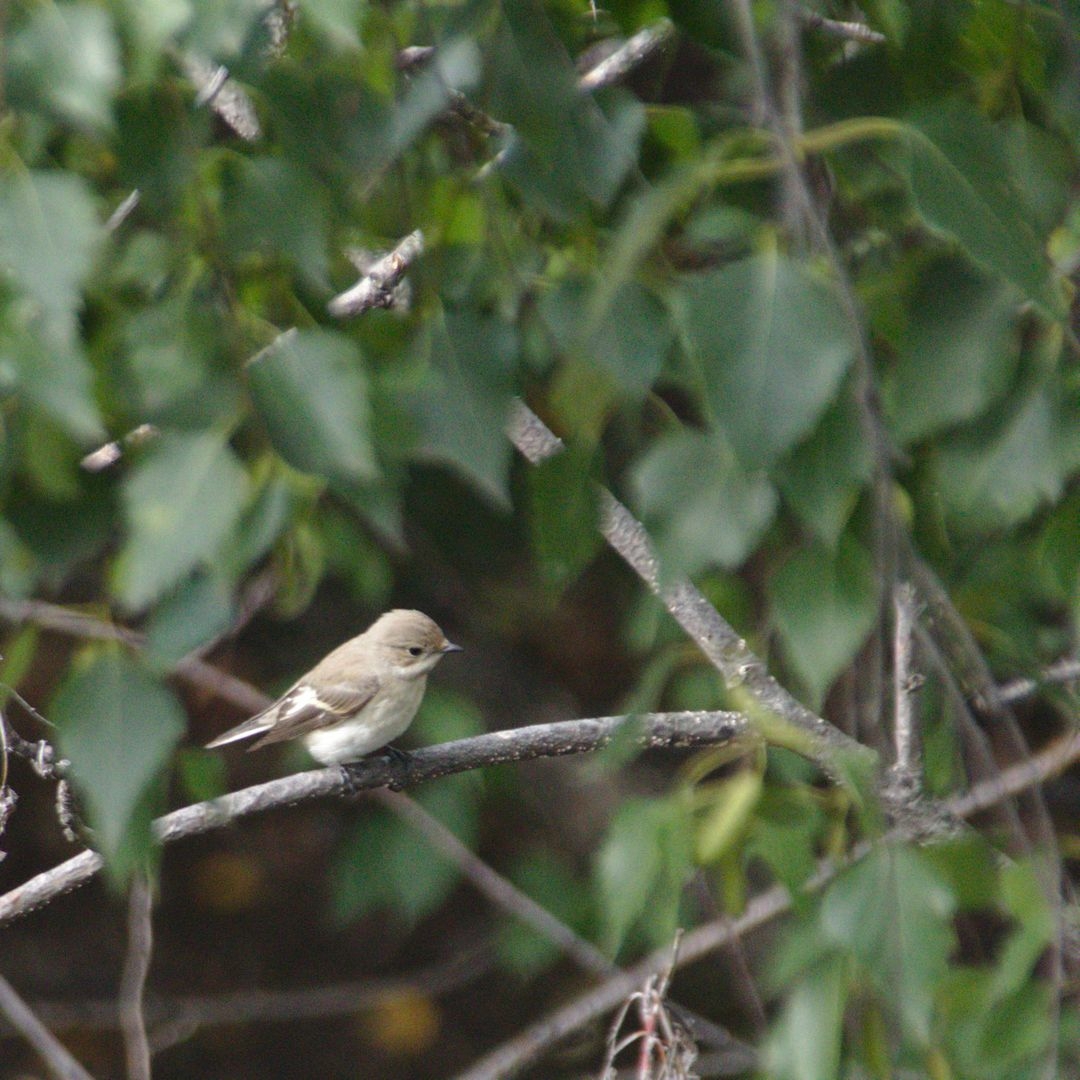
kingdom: Animalia
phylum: Chordata
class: Aves
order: Passeriformes
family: Muscicapidae
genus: Ficedula
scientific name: Ficedula hypoleuca
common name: European pied flycatcher
